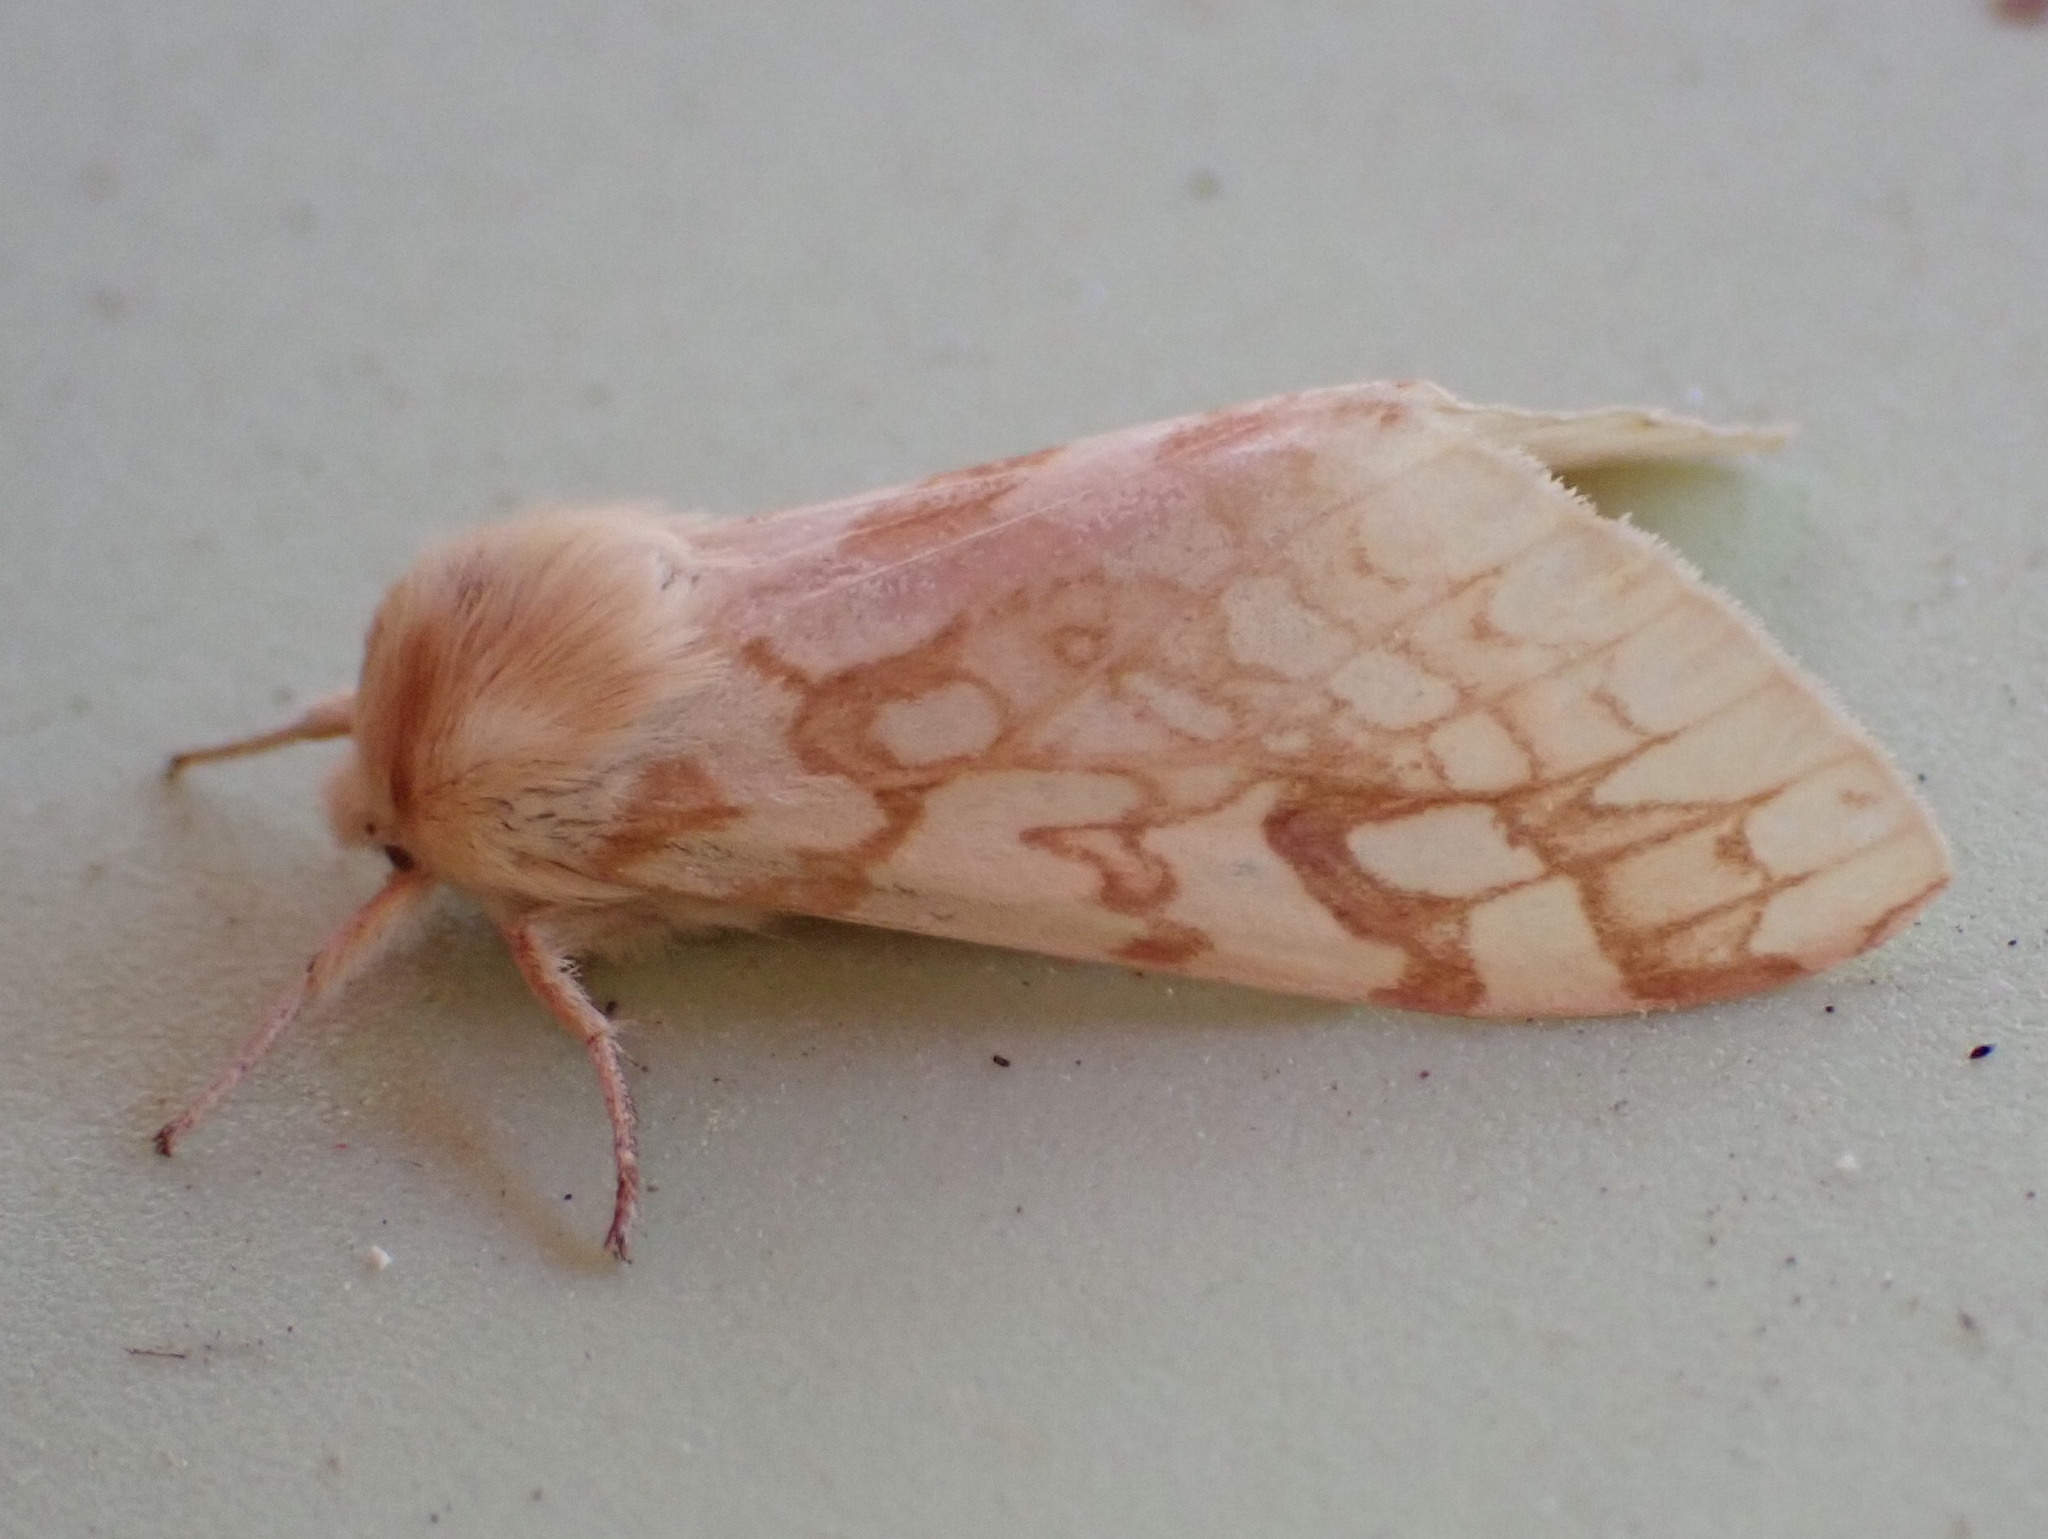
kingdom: Animalia
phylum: Arthropoda
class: Insecta
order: Lepidoptera
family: Erebidae
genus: Lophocampa
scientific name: Lophocampa maculata
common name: Spotted tussock moth
